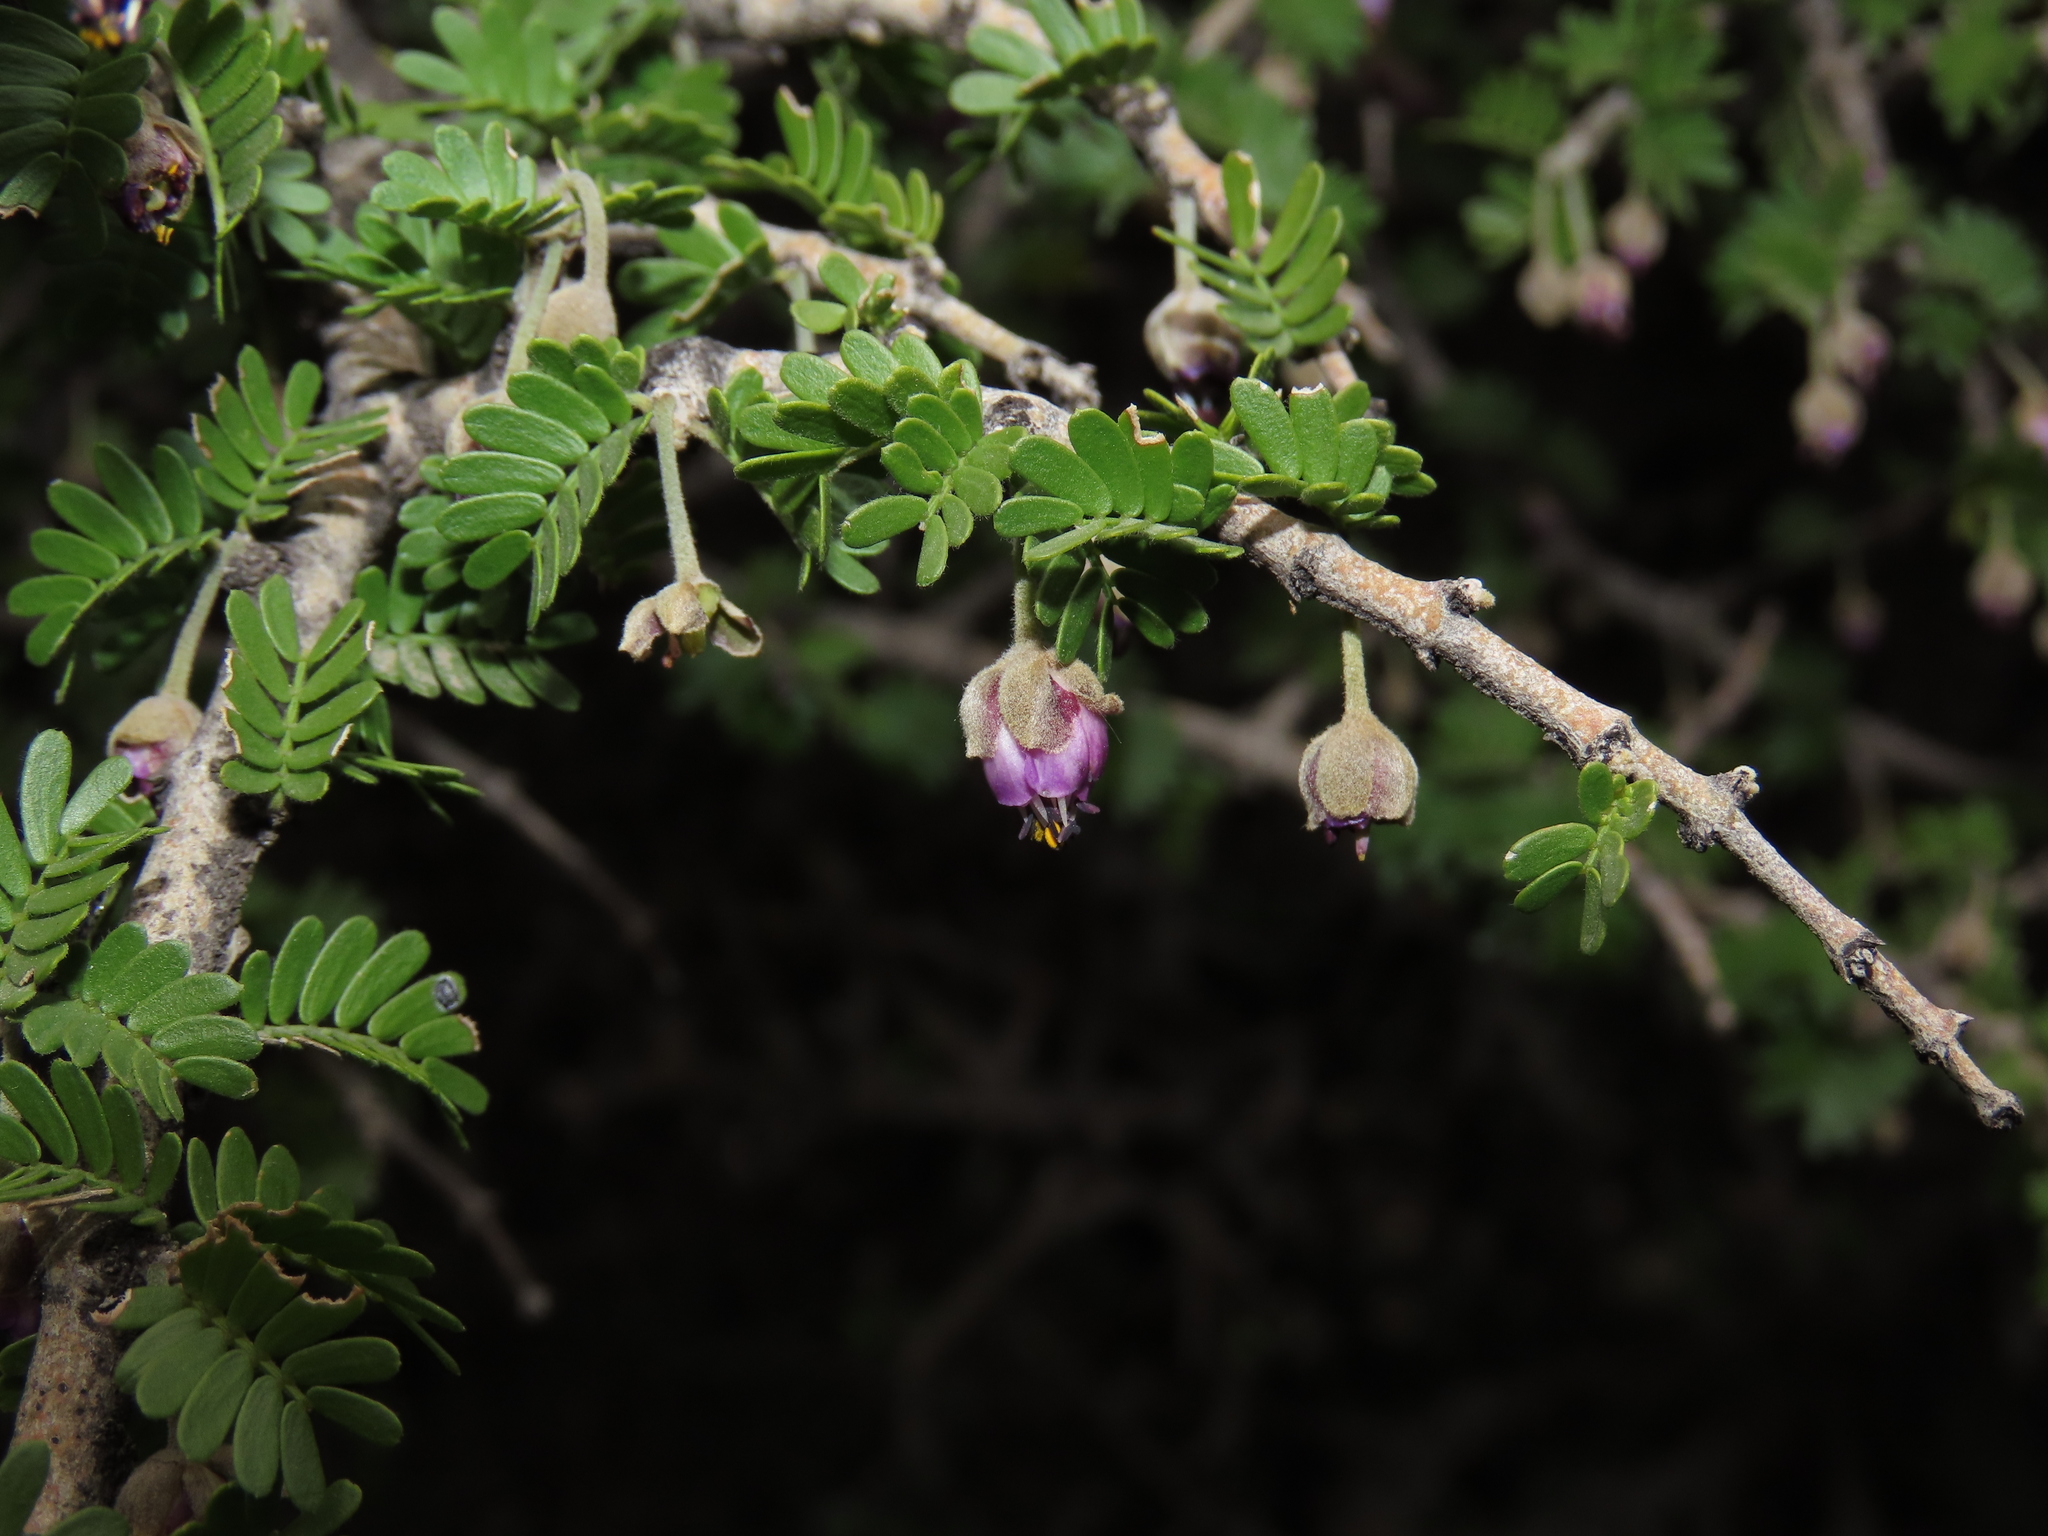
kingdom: Plantae
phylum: Tracheophyta
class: Magnoliopsida
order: Zygophyllales
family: Zygophyllaceae
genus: Porlieria
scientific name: Porlieria chilensis
